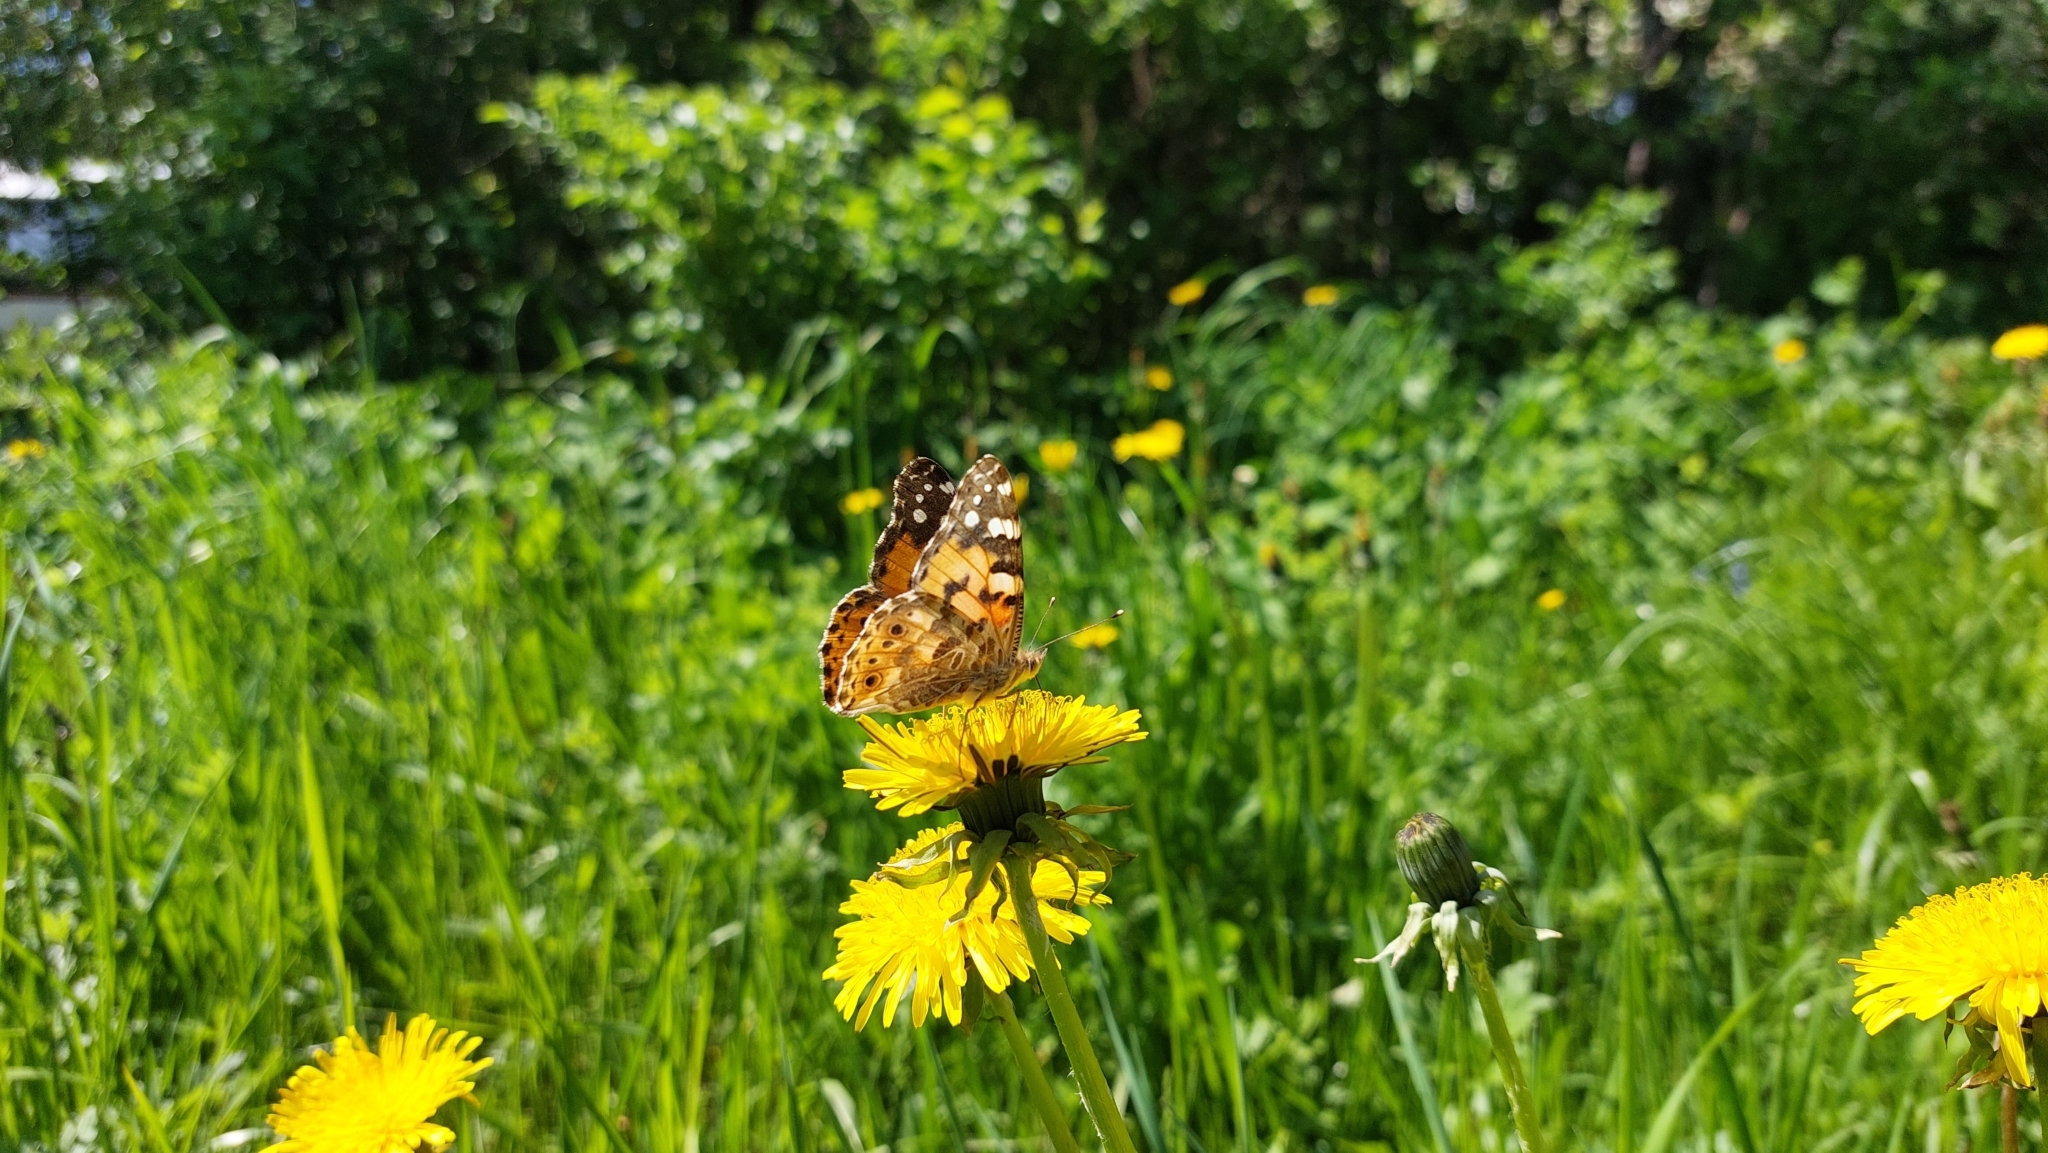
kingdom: Animalia
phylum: Arthropoda
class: Insecta
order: Lepidoptera
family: Nymphalidae
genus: Vanessa
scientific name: Vanessa cardui
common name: Painted lady
